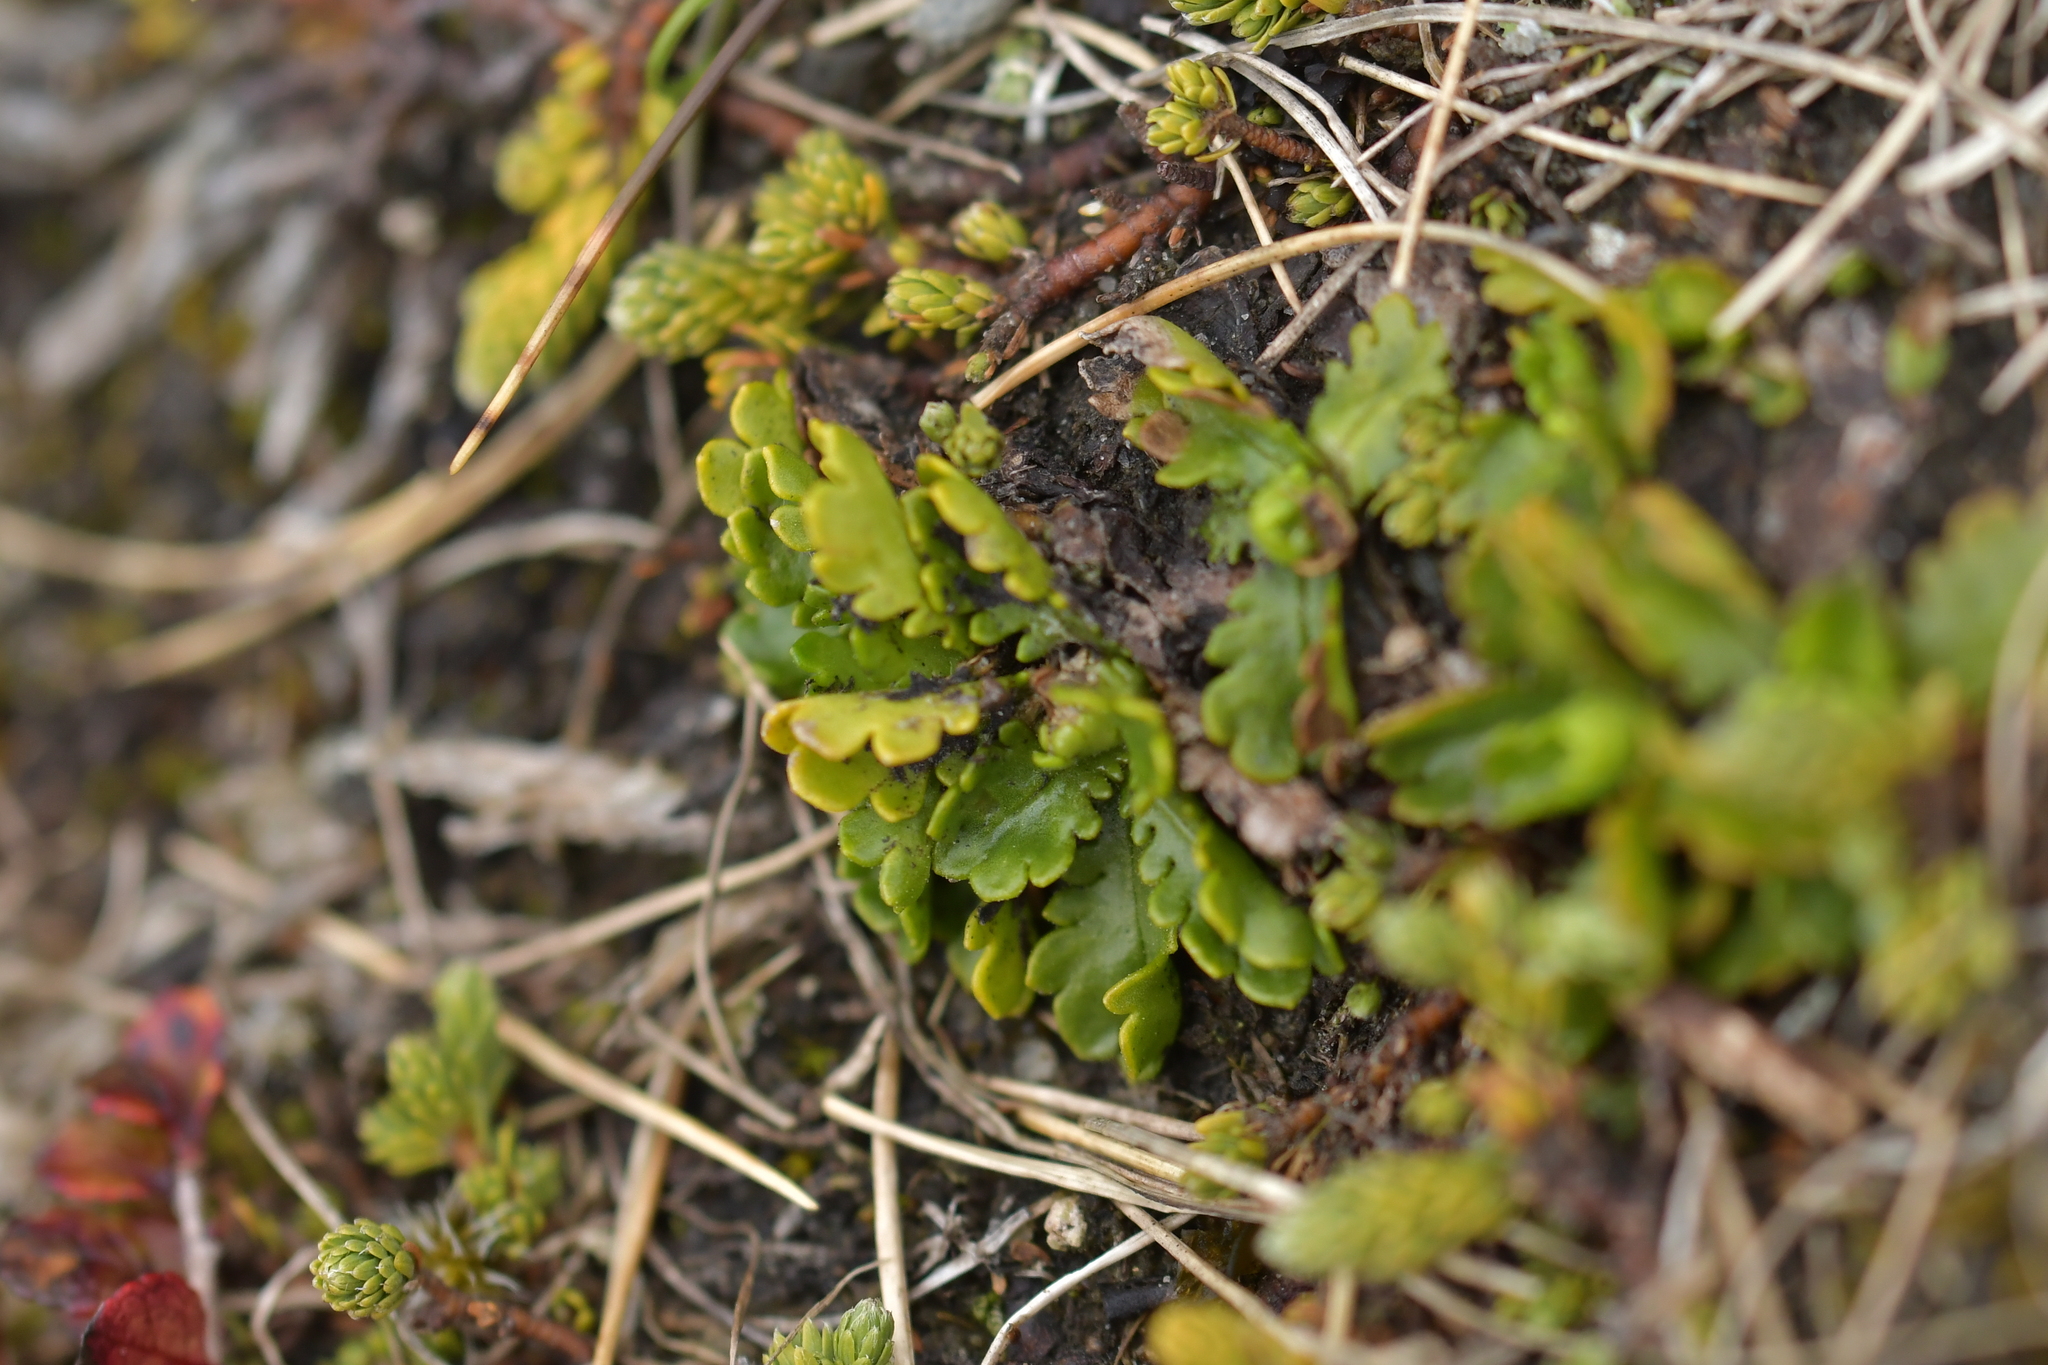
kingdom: Plantae
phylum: Tracheophyta
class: Magnoliopsida
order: Asterales
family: Asteraceae
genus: Brachyscome
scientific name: Brachyscome sinclairii
